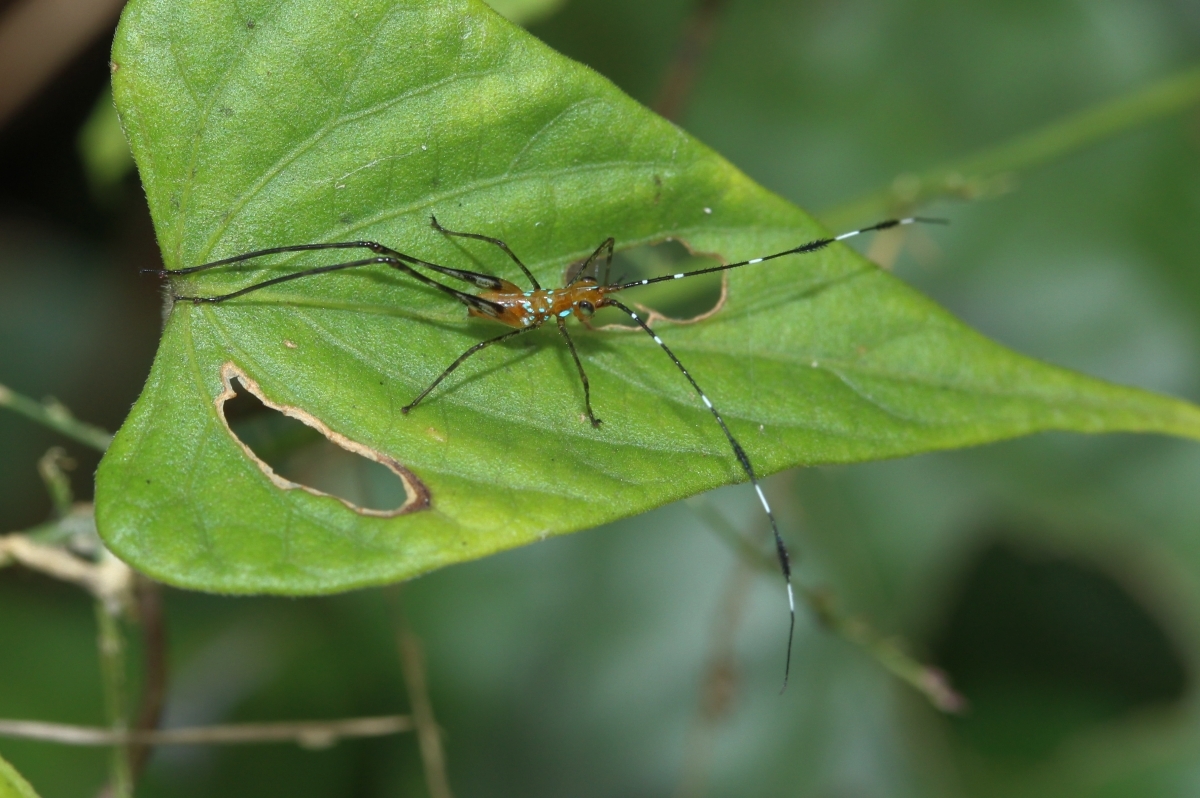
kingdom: Animalia
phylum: Arthropoda
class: Insecta
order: Orthoptera
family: Tettigoniidae
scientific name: Tettigoniidae
